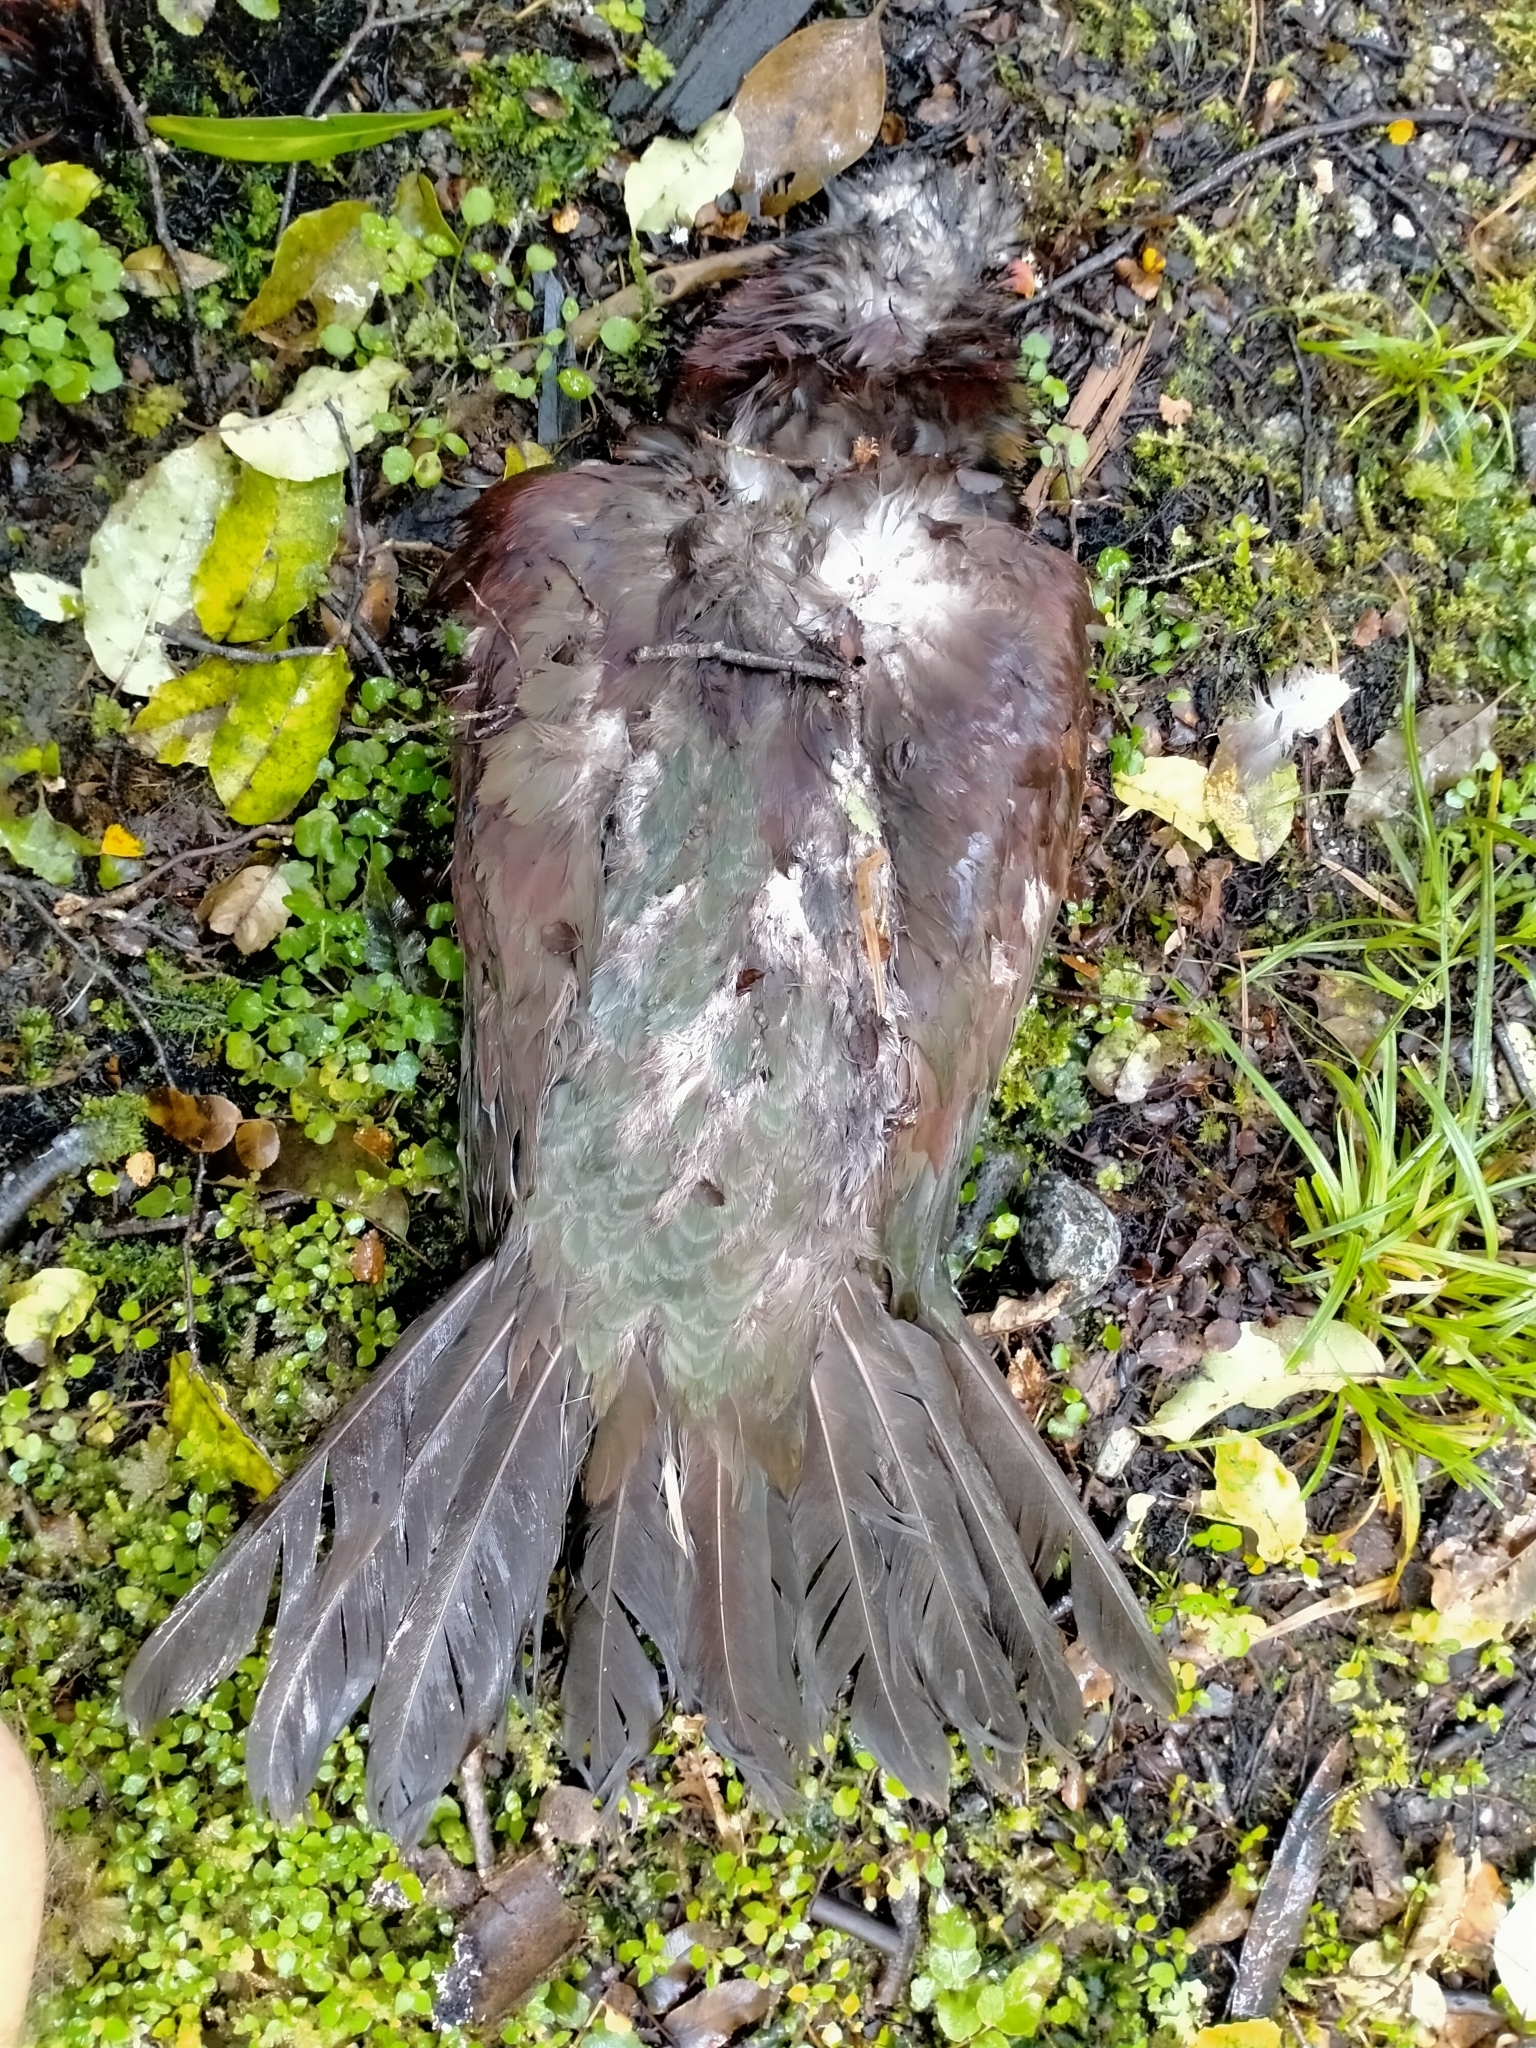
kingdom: Animalia
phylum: Chordata
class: Aves
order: Columbiformes
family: Columbidae
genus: Hemiphaga
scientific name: Hemiphaga novaeseelandiae
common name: New zealand pigeon
